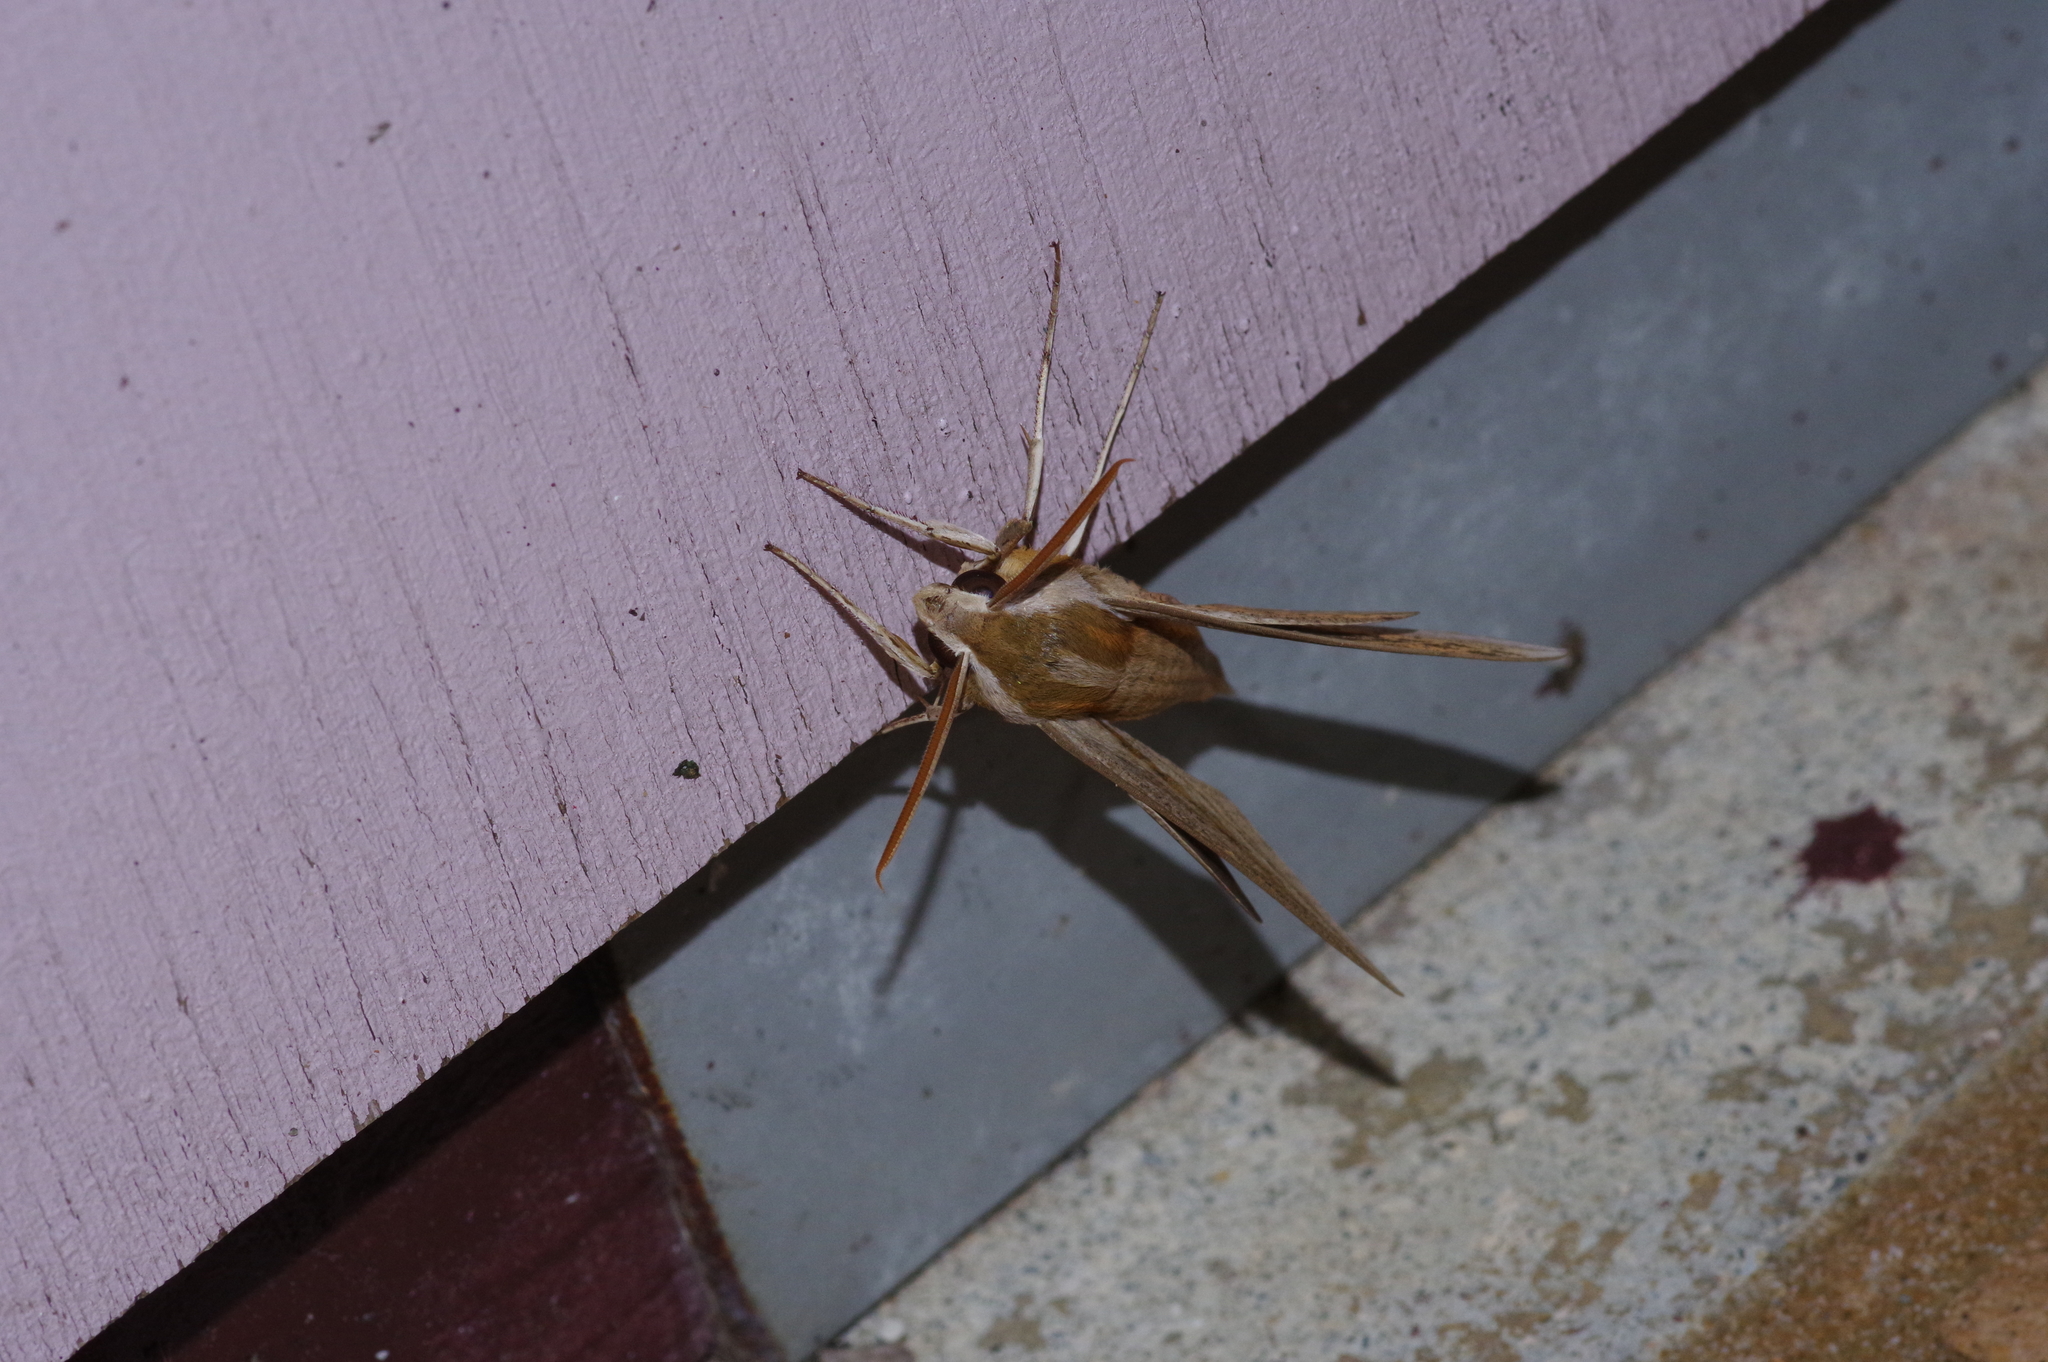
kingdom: Animalia
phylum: Arthropoda
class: Insecta
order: Lepidoptera
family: Sphingidae
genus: Theretra
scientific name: Theretra japonica
